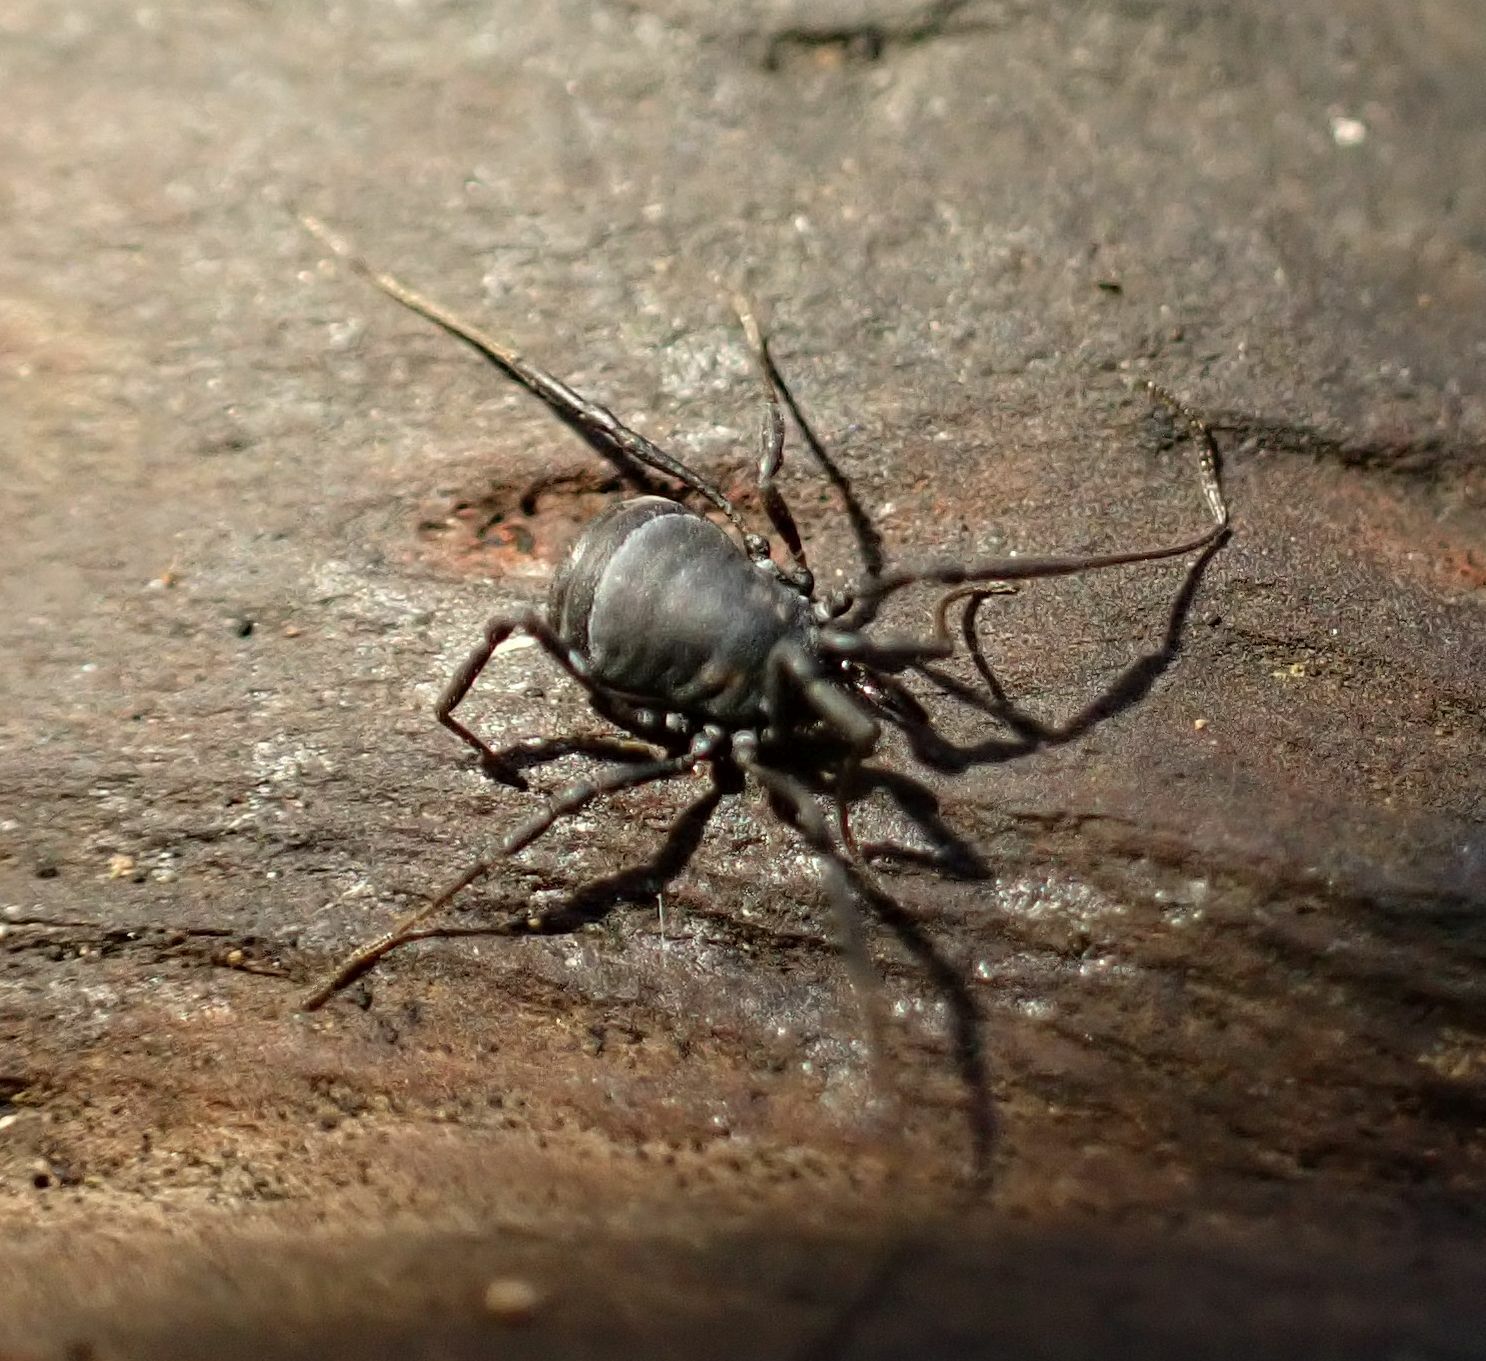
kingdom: Animalia
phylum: Arthropoda
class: Arachnida
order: Opiliones
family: Nemastomatidae
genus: Nemastoma
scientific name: Nemastoma bimaculatum
